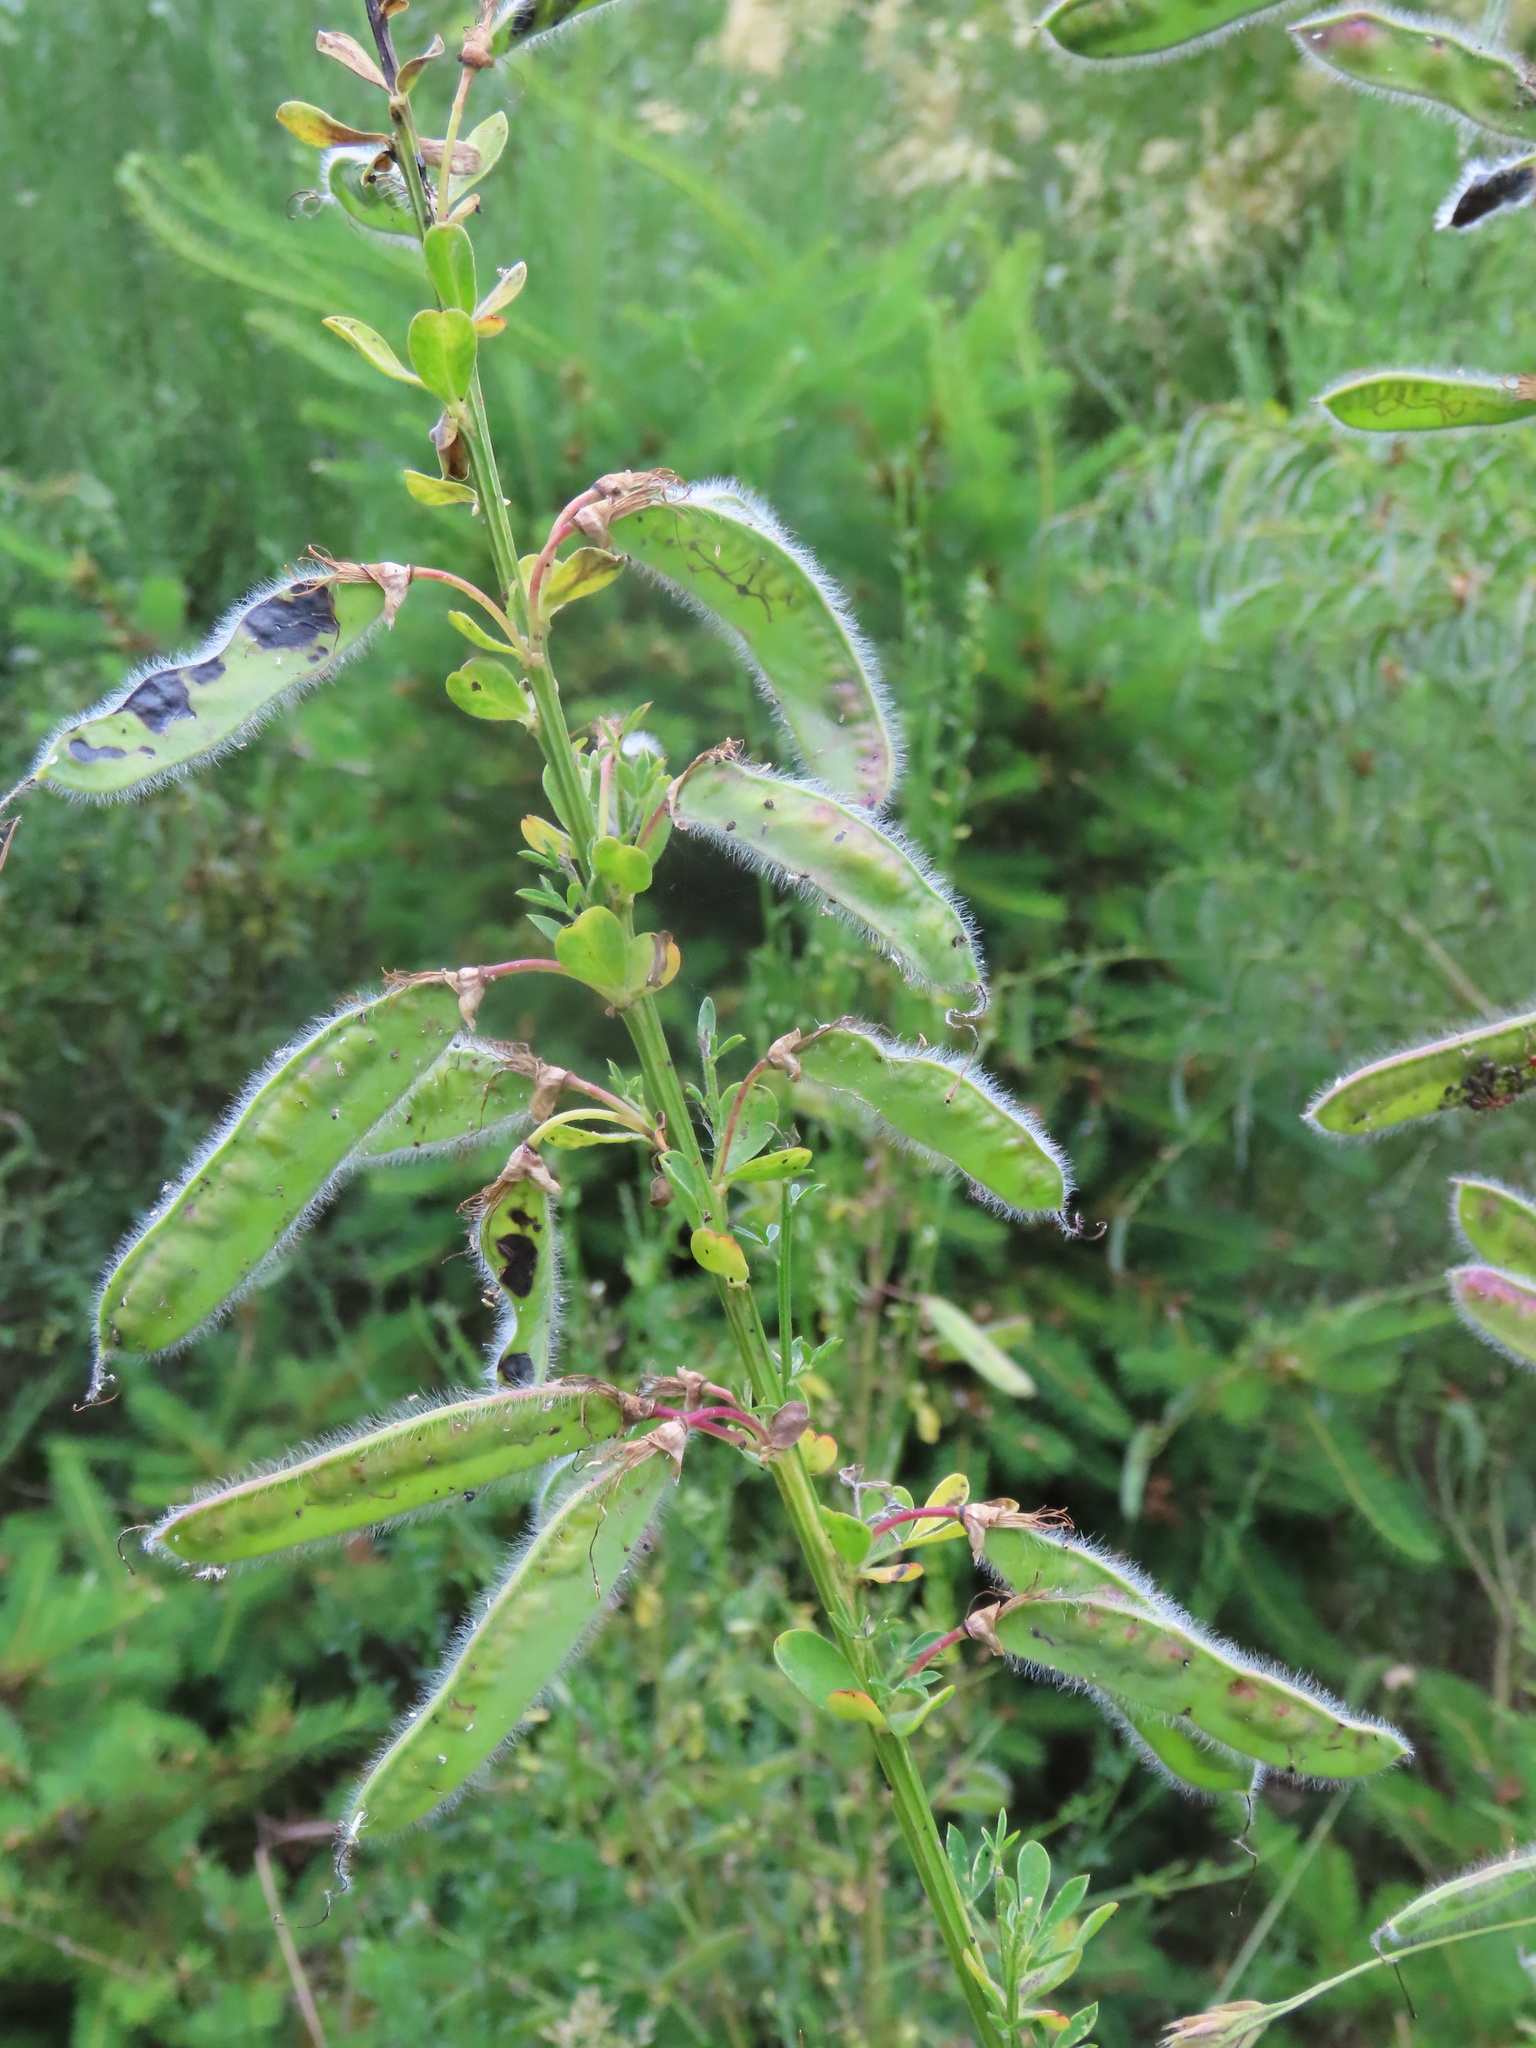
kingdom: Plantae
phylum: Tracheophyta
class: Magnoliopsida
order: Fabales
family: Fabaceae
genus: Cytisus
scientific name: Cytisus scoparius
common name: Scotch broom
